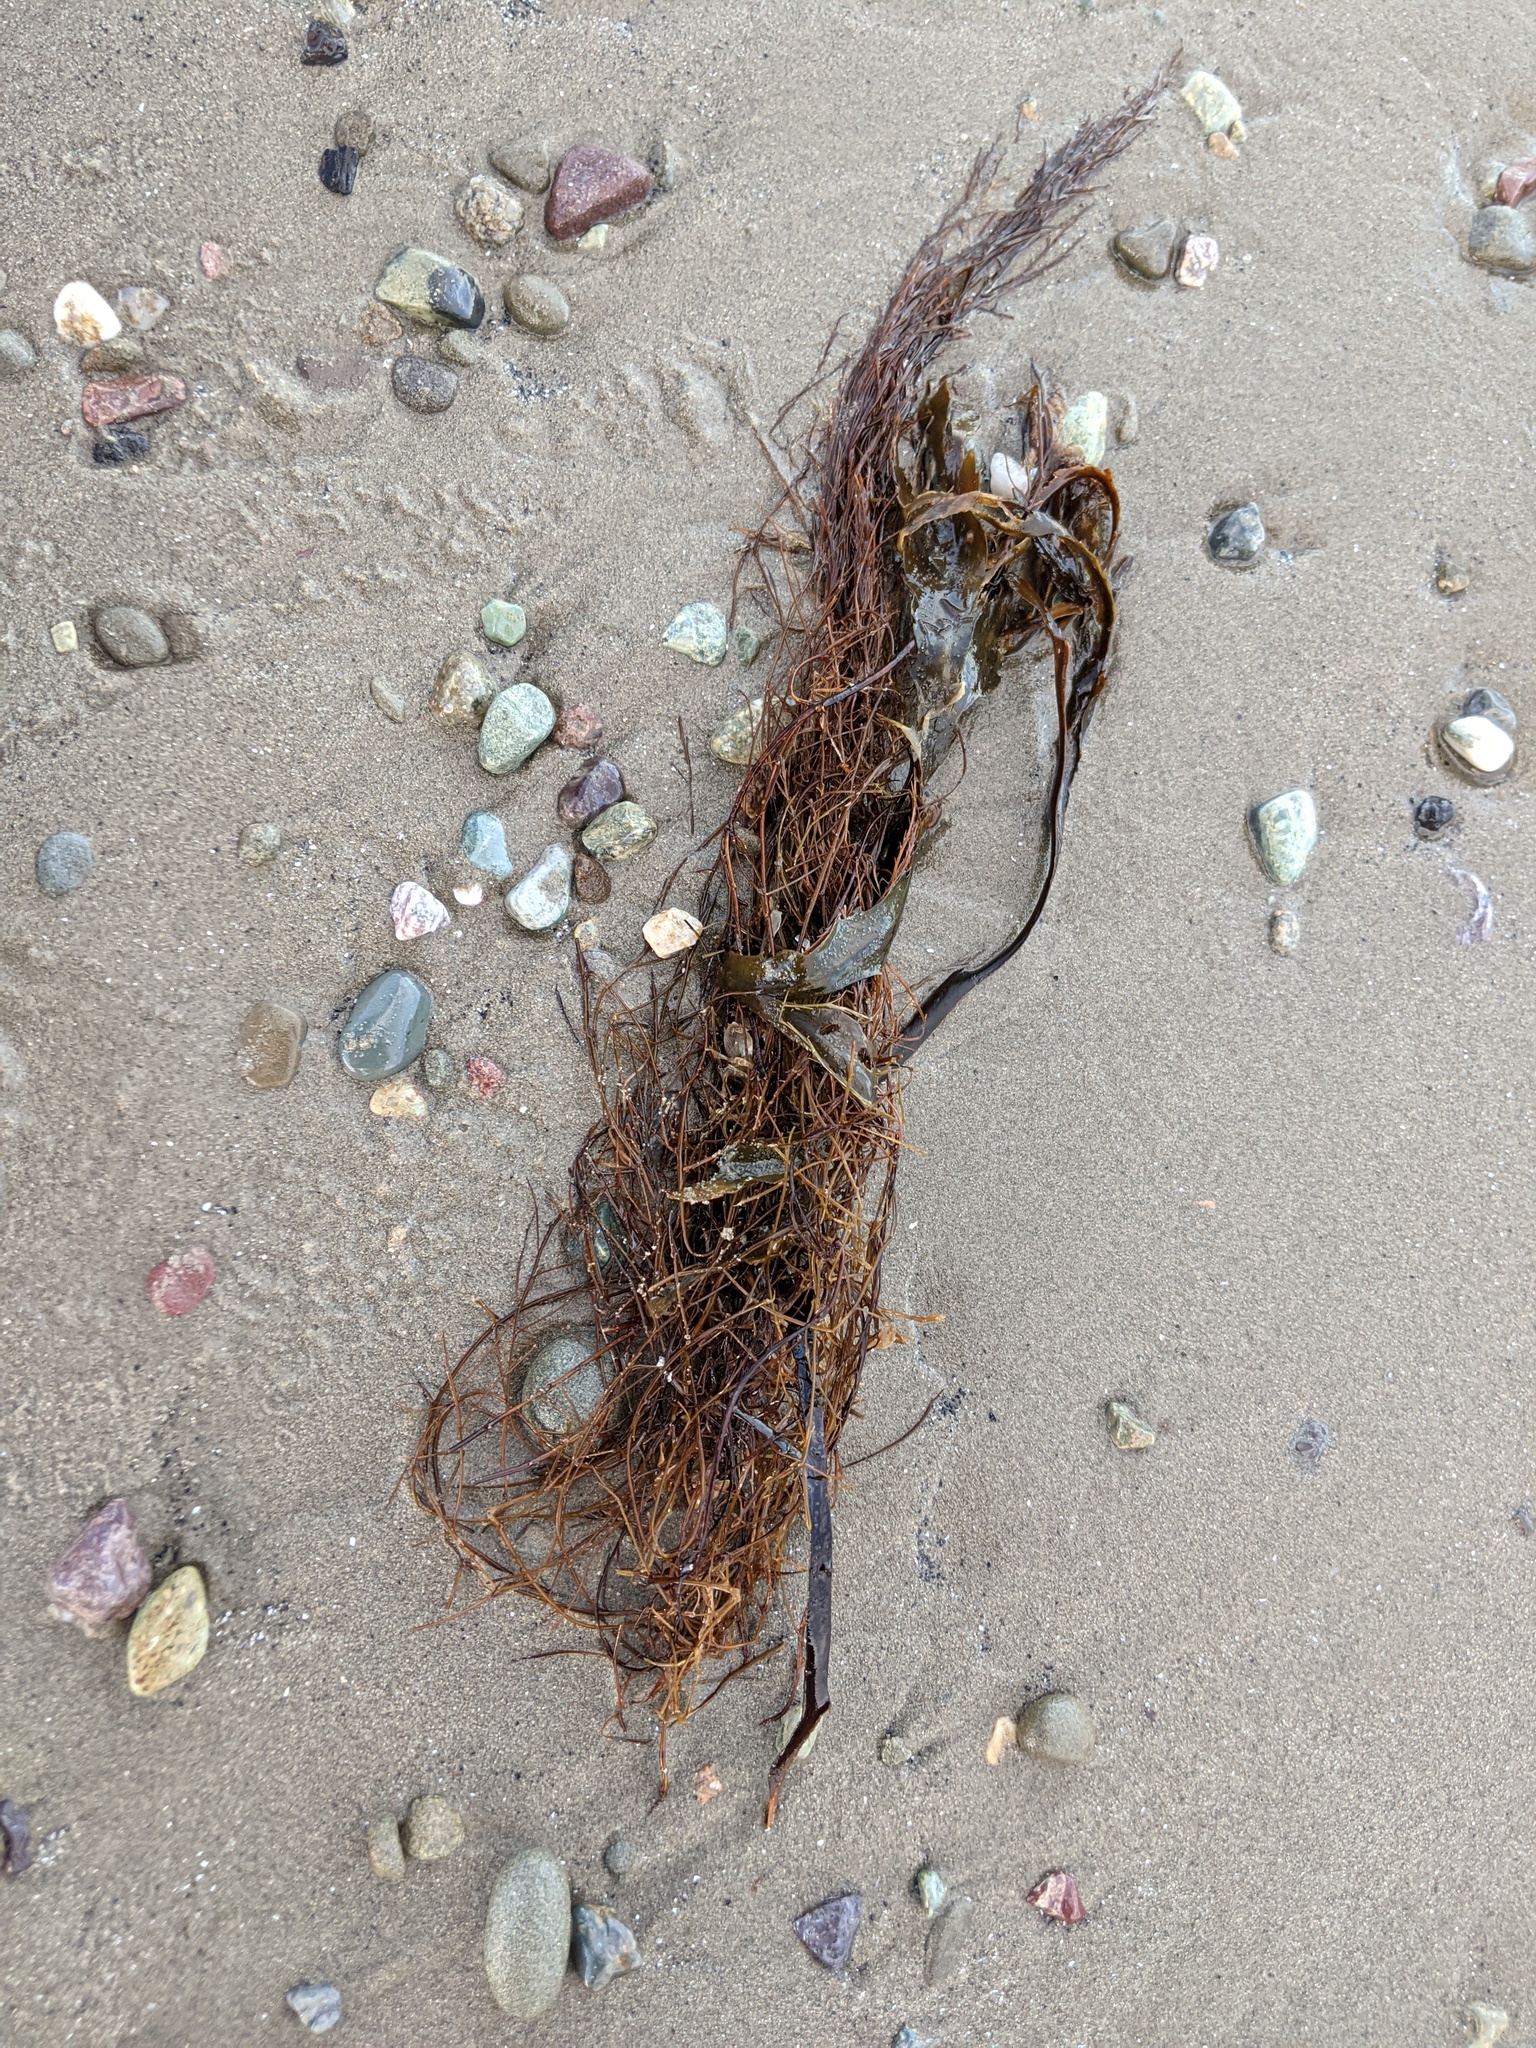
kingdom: Chromista
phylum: Ochrophyta
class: Phaeophyceae
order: Desmarestiales
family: Desmarestiaceae
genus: Desmarestia
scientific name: Desmarestia aculeata
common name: Witch's hair
